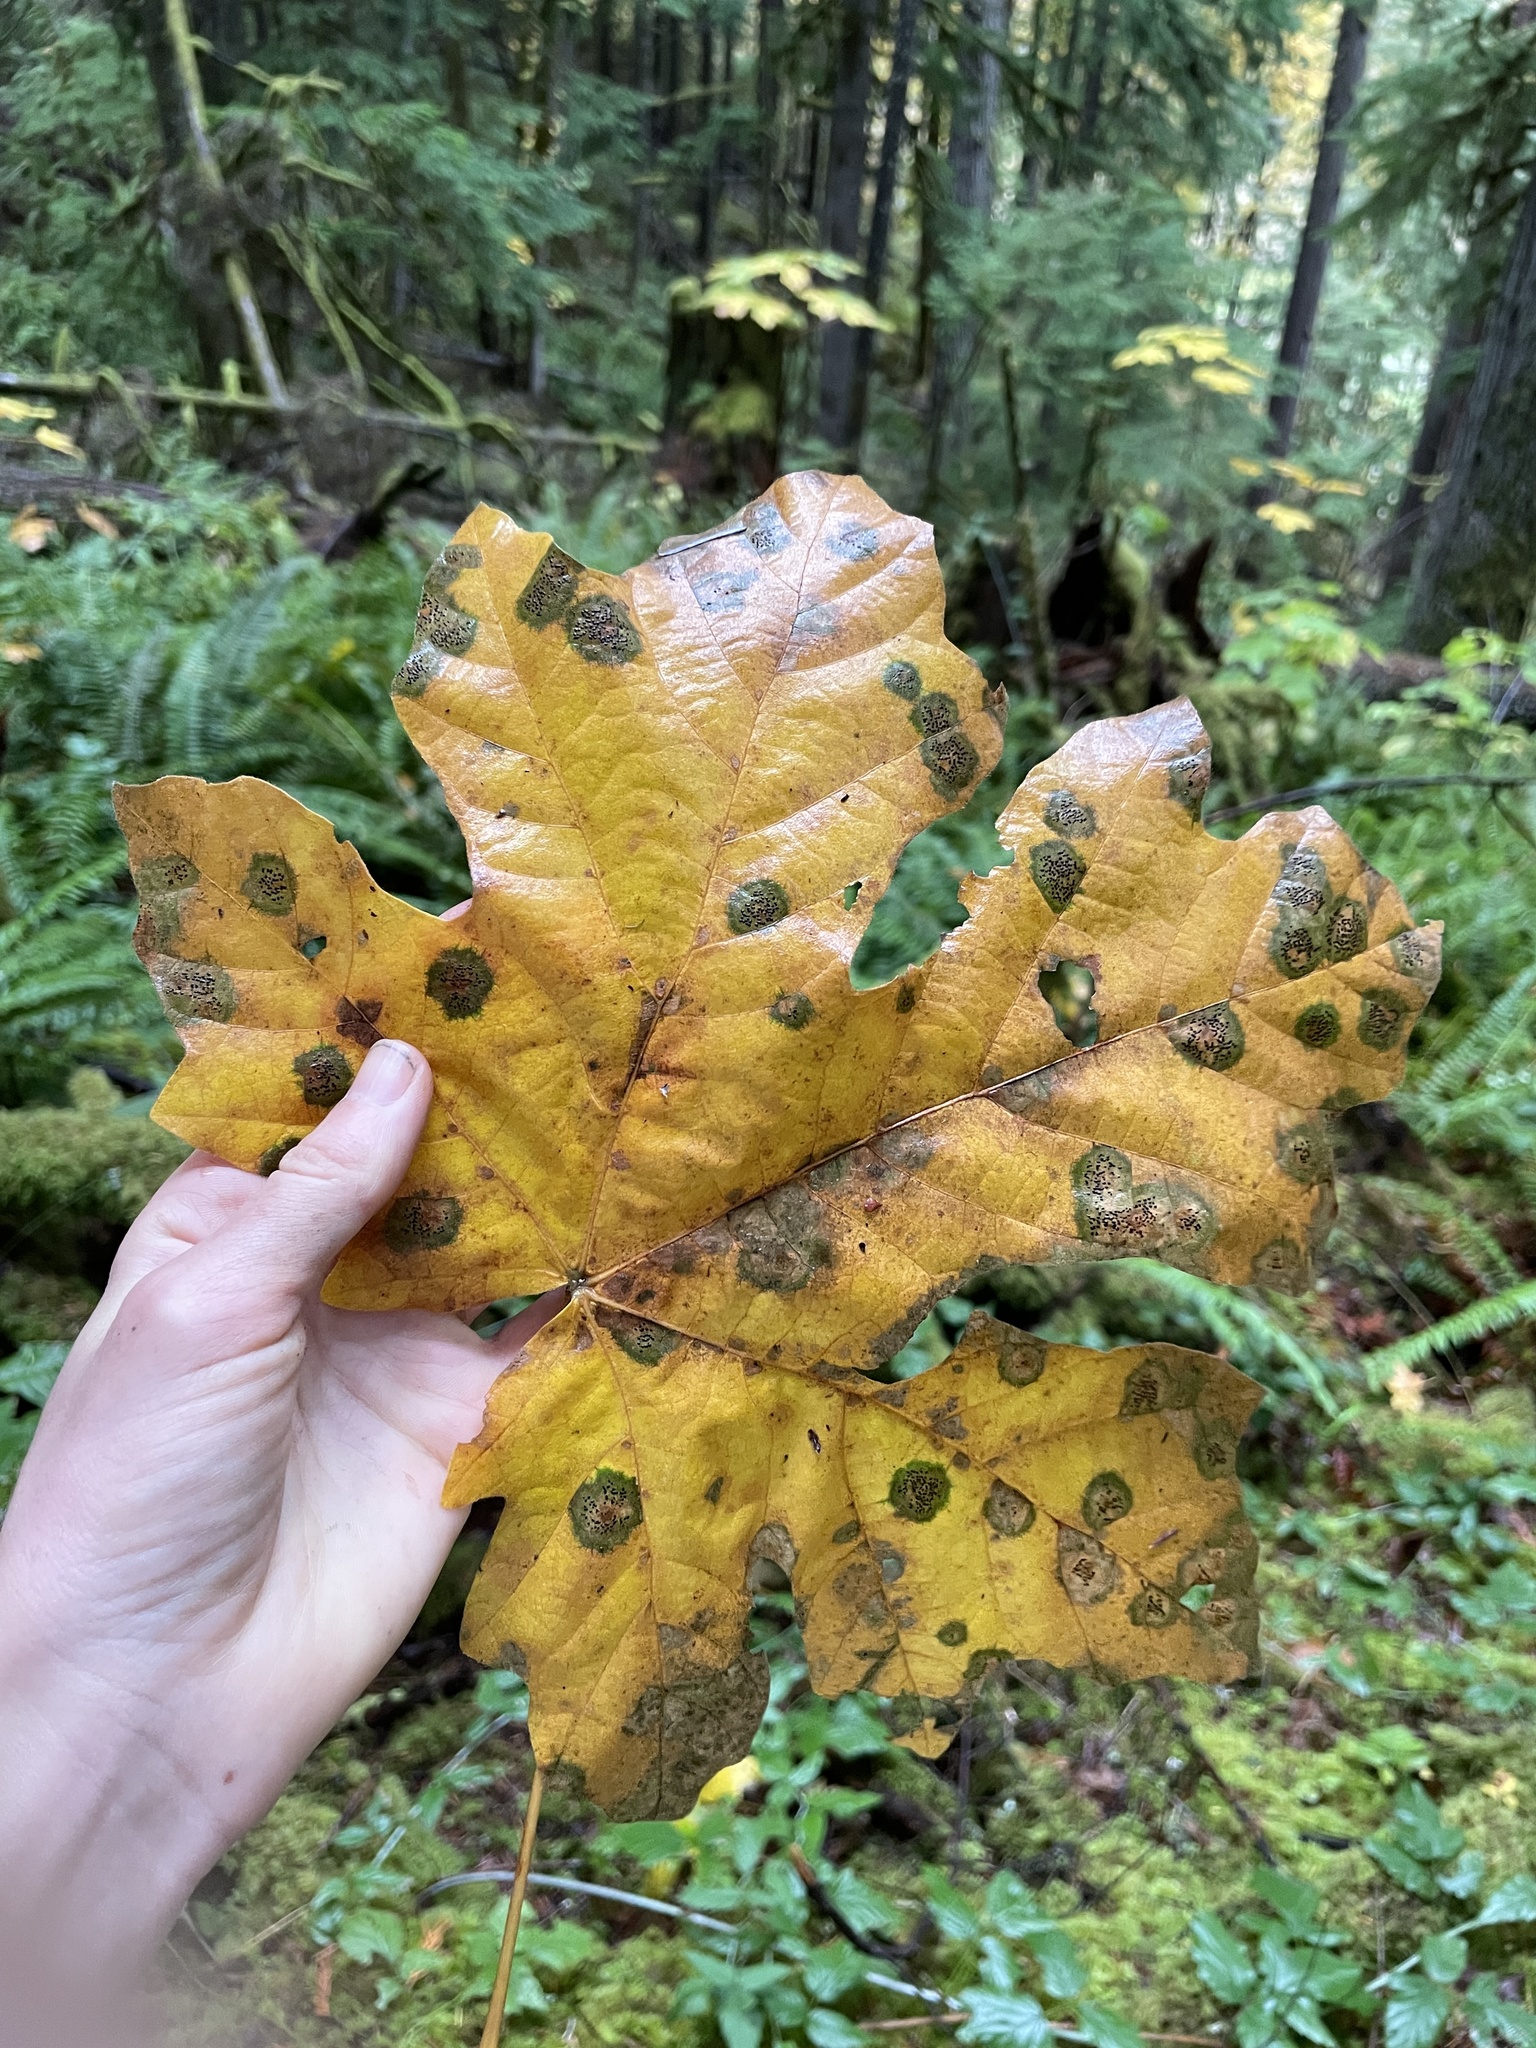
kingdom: Fungi
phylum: Ascomycota
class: Leotiomycetes
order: Rhytismatales
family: Rhytismataceae
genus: Rhytisma
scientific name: Rhytisma punctatum
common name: Speckled tar spot
